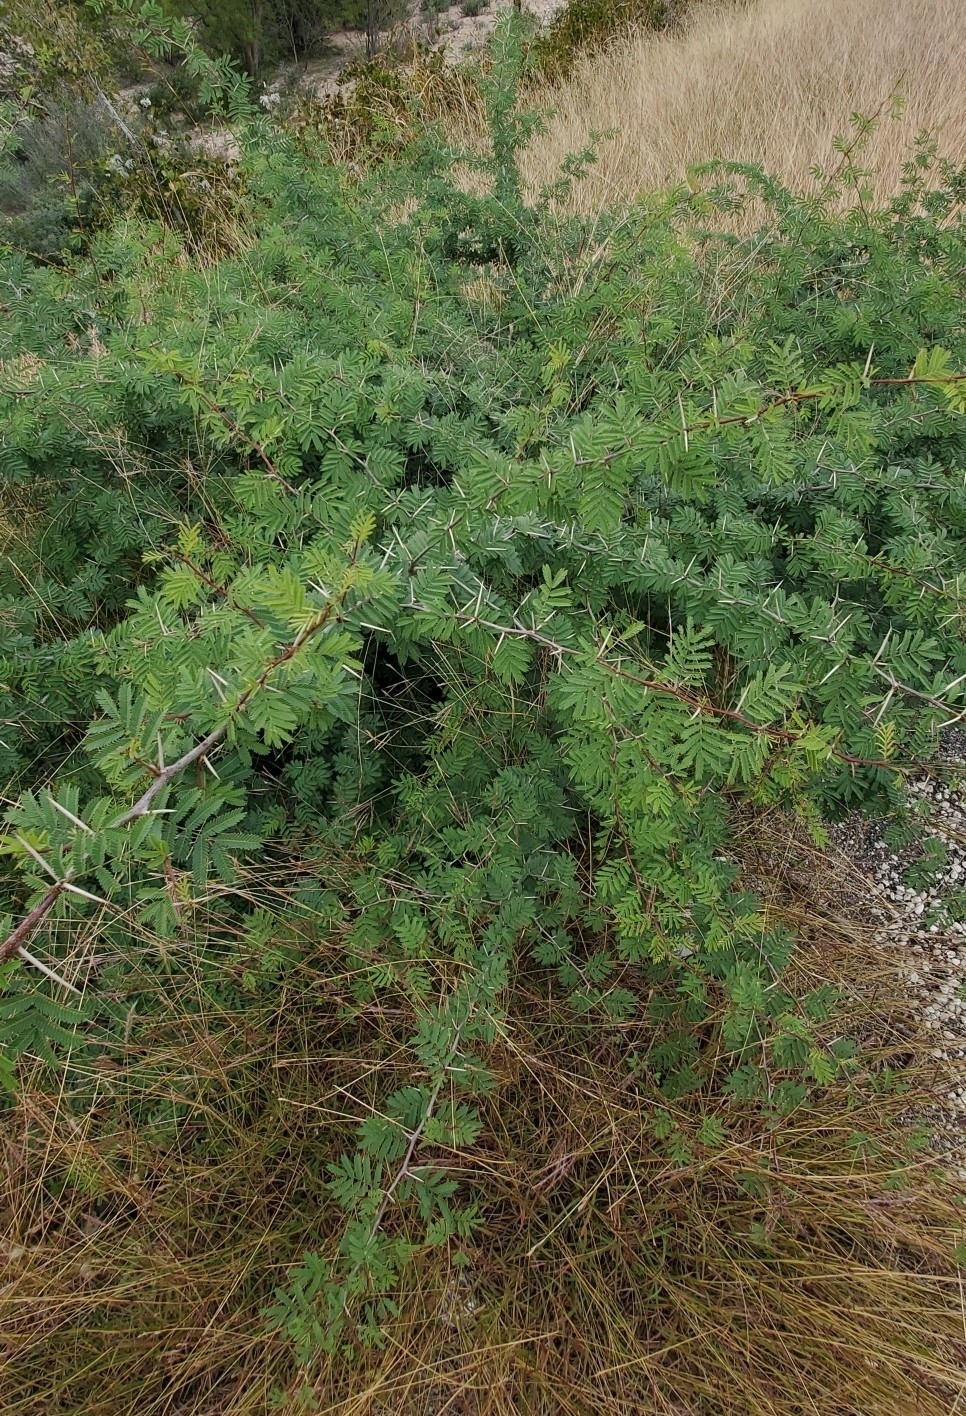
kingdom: Plantae
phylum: Tracheophyta
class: Magnoliopsida
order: Fabales
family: Fabaceae
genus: Vachellia
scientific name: Vachellia farnesiana
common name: Sweet acacia
